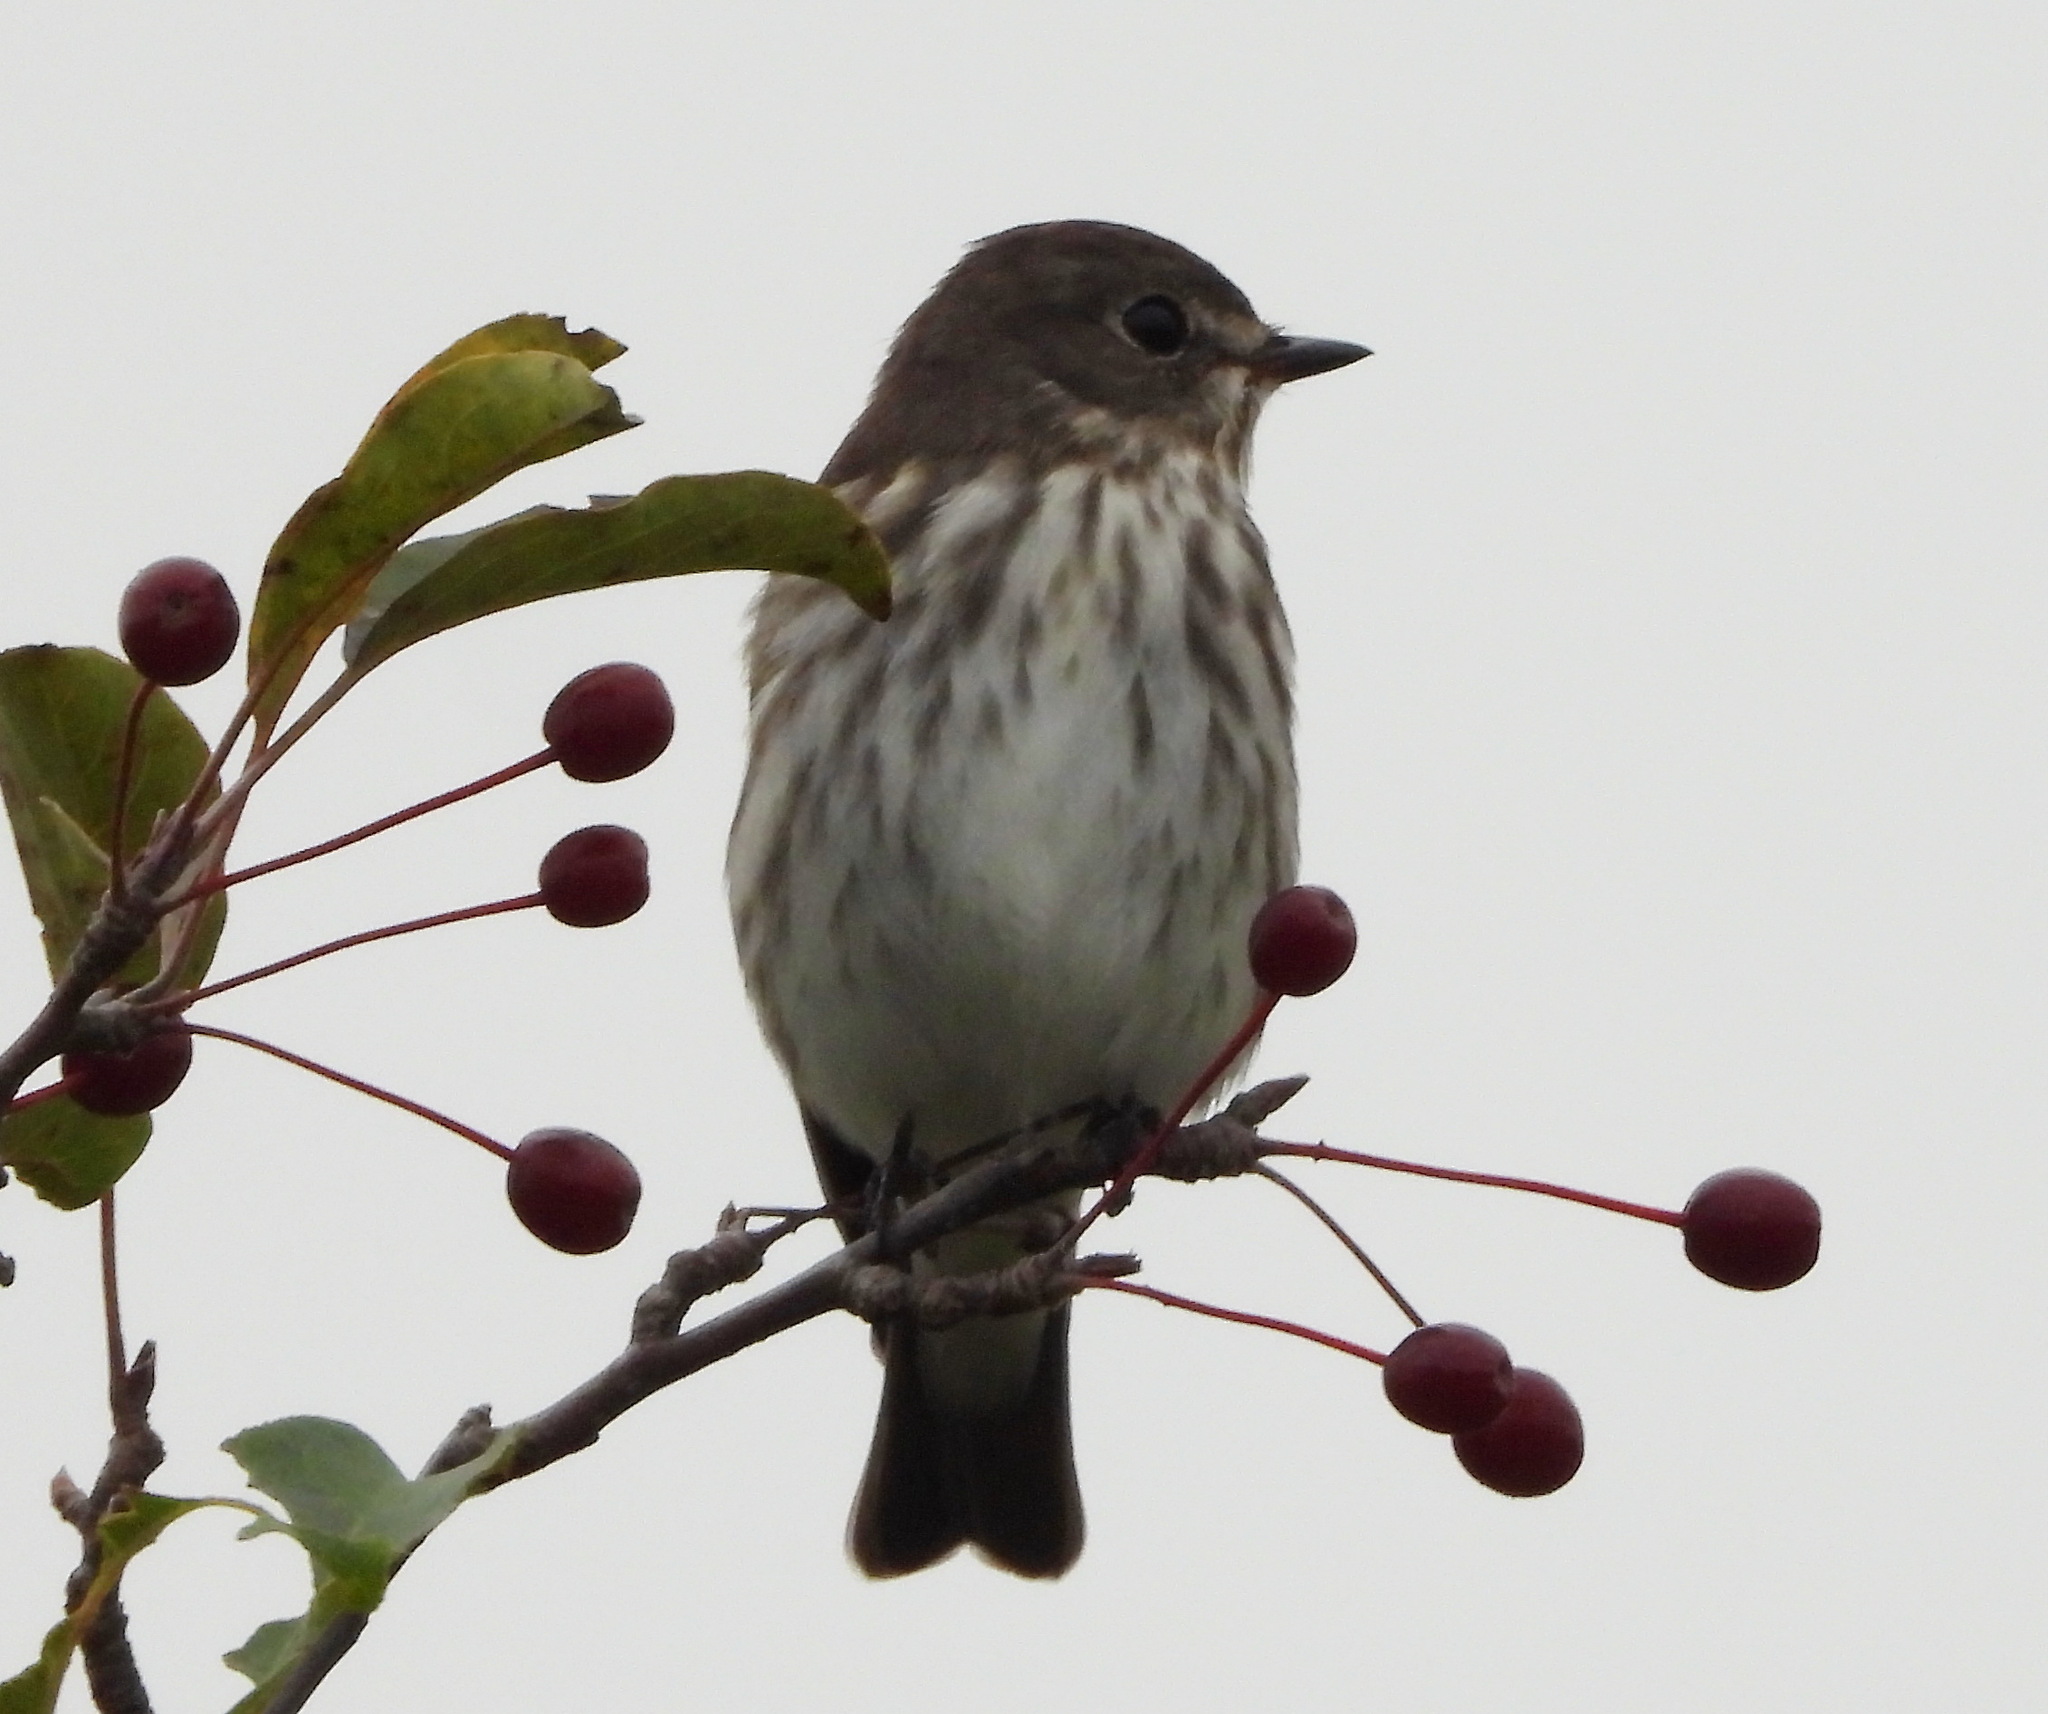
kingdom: Animalia
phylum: Chordata
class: Aves
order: Passeriformes
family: Muscicapidae
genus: Muscicapa
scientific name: Muscicapa griseisticta
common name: Gray-streaked flycatcher
